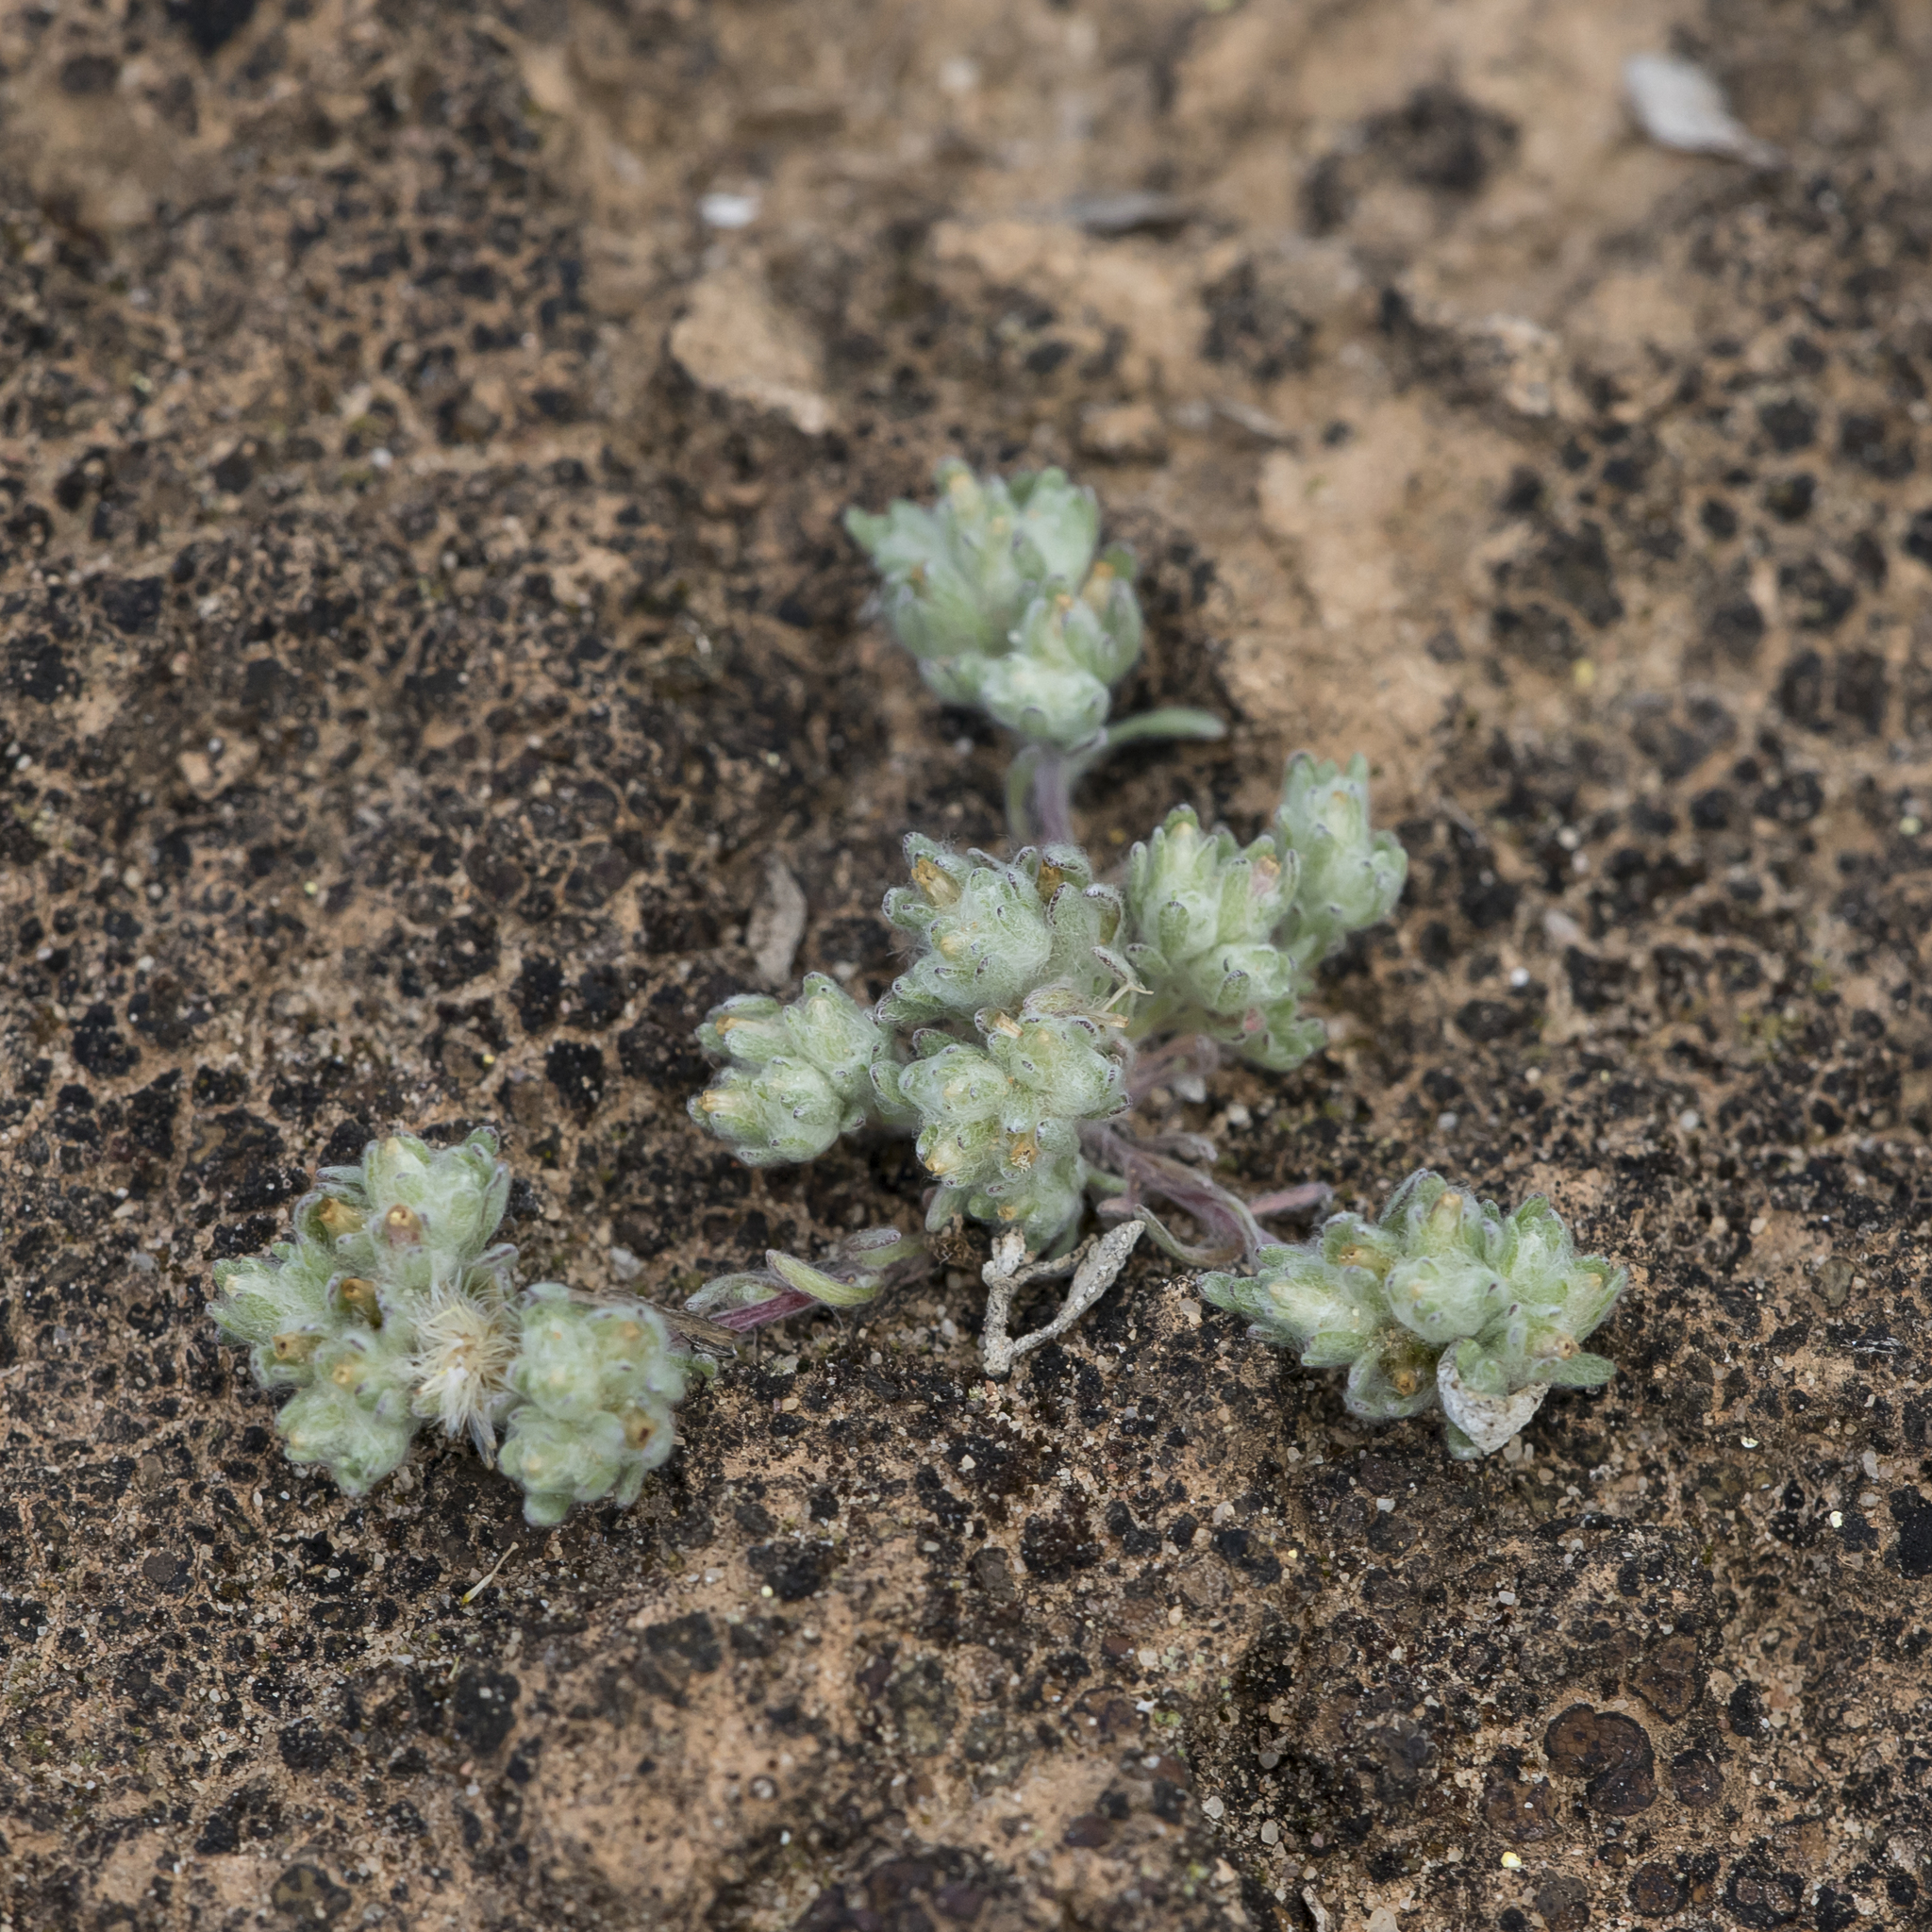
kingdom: Plantae
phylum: Tracheophyta
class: Magnoliopsida
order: Asterales
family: Asteraceae
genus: Actinobole
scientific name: Actinobole uliginosum
